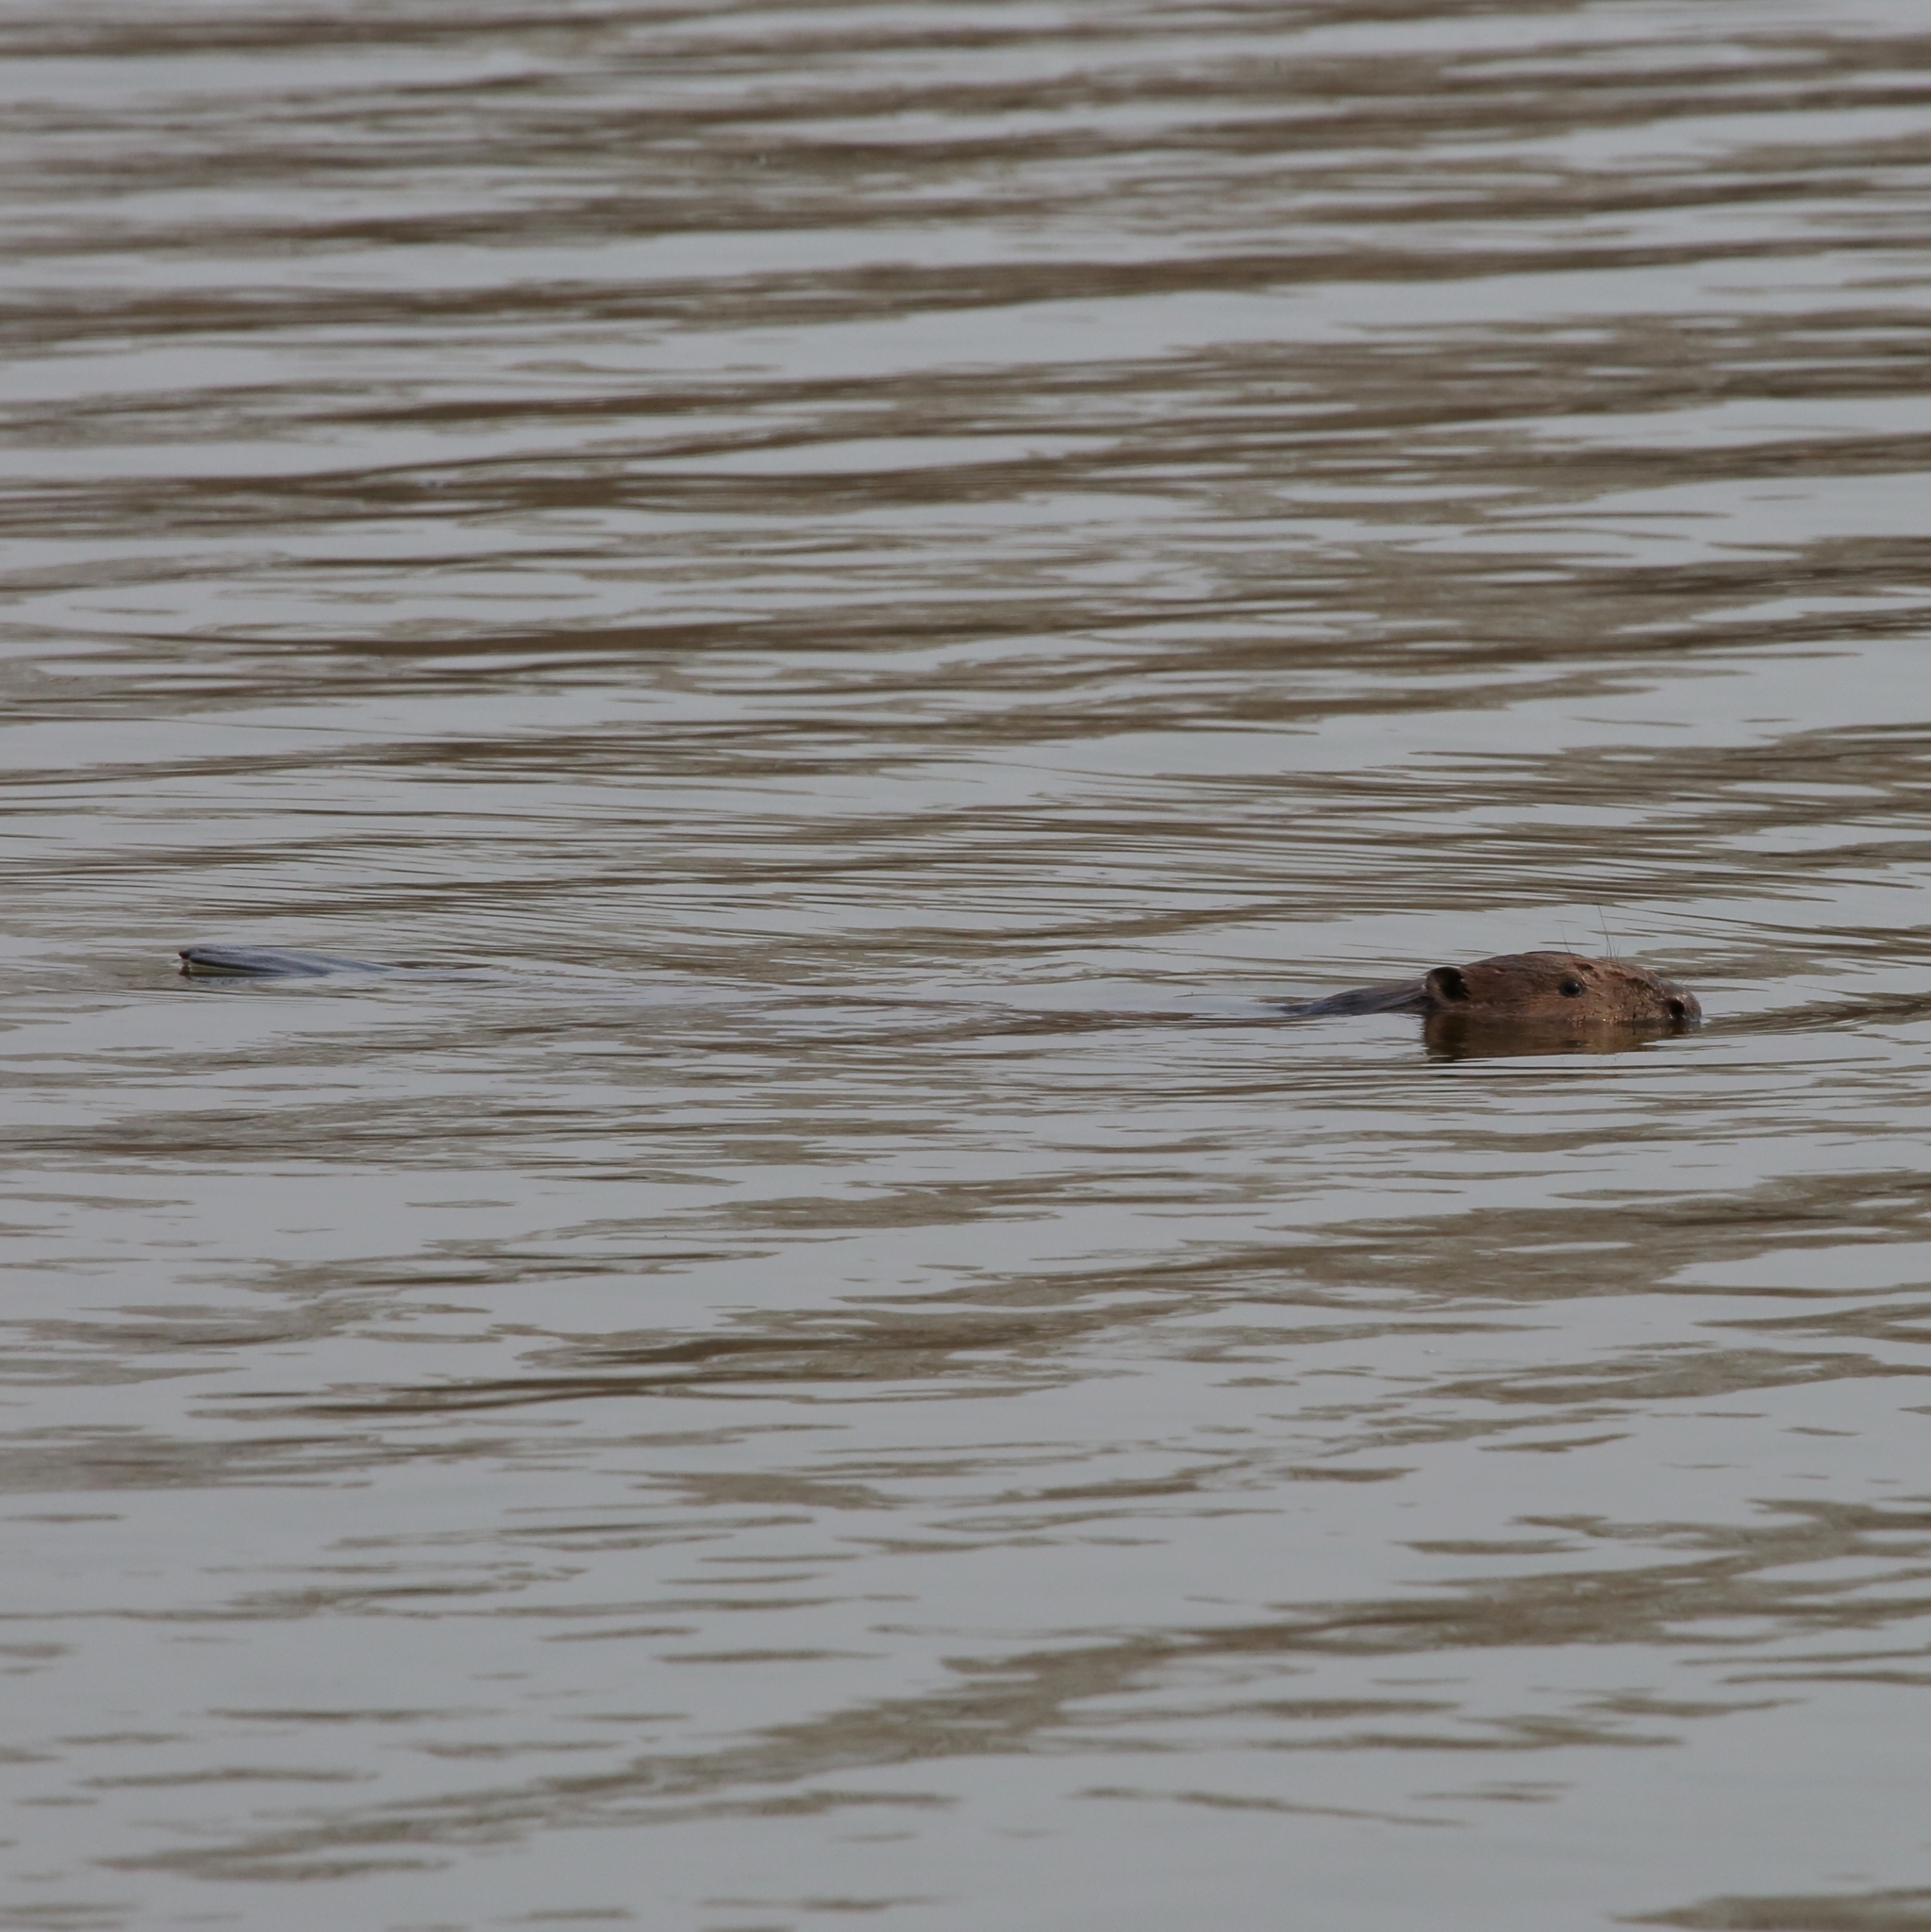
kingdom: Animalia
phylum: Chordata
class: Mammalia
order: Rodentia
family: Castoridae
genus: Castor
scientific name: Castor fiber
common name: Eurasian beaver
